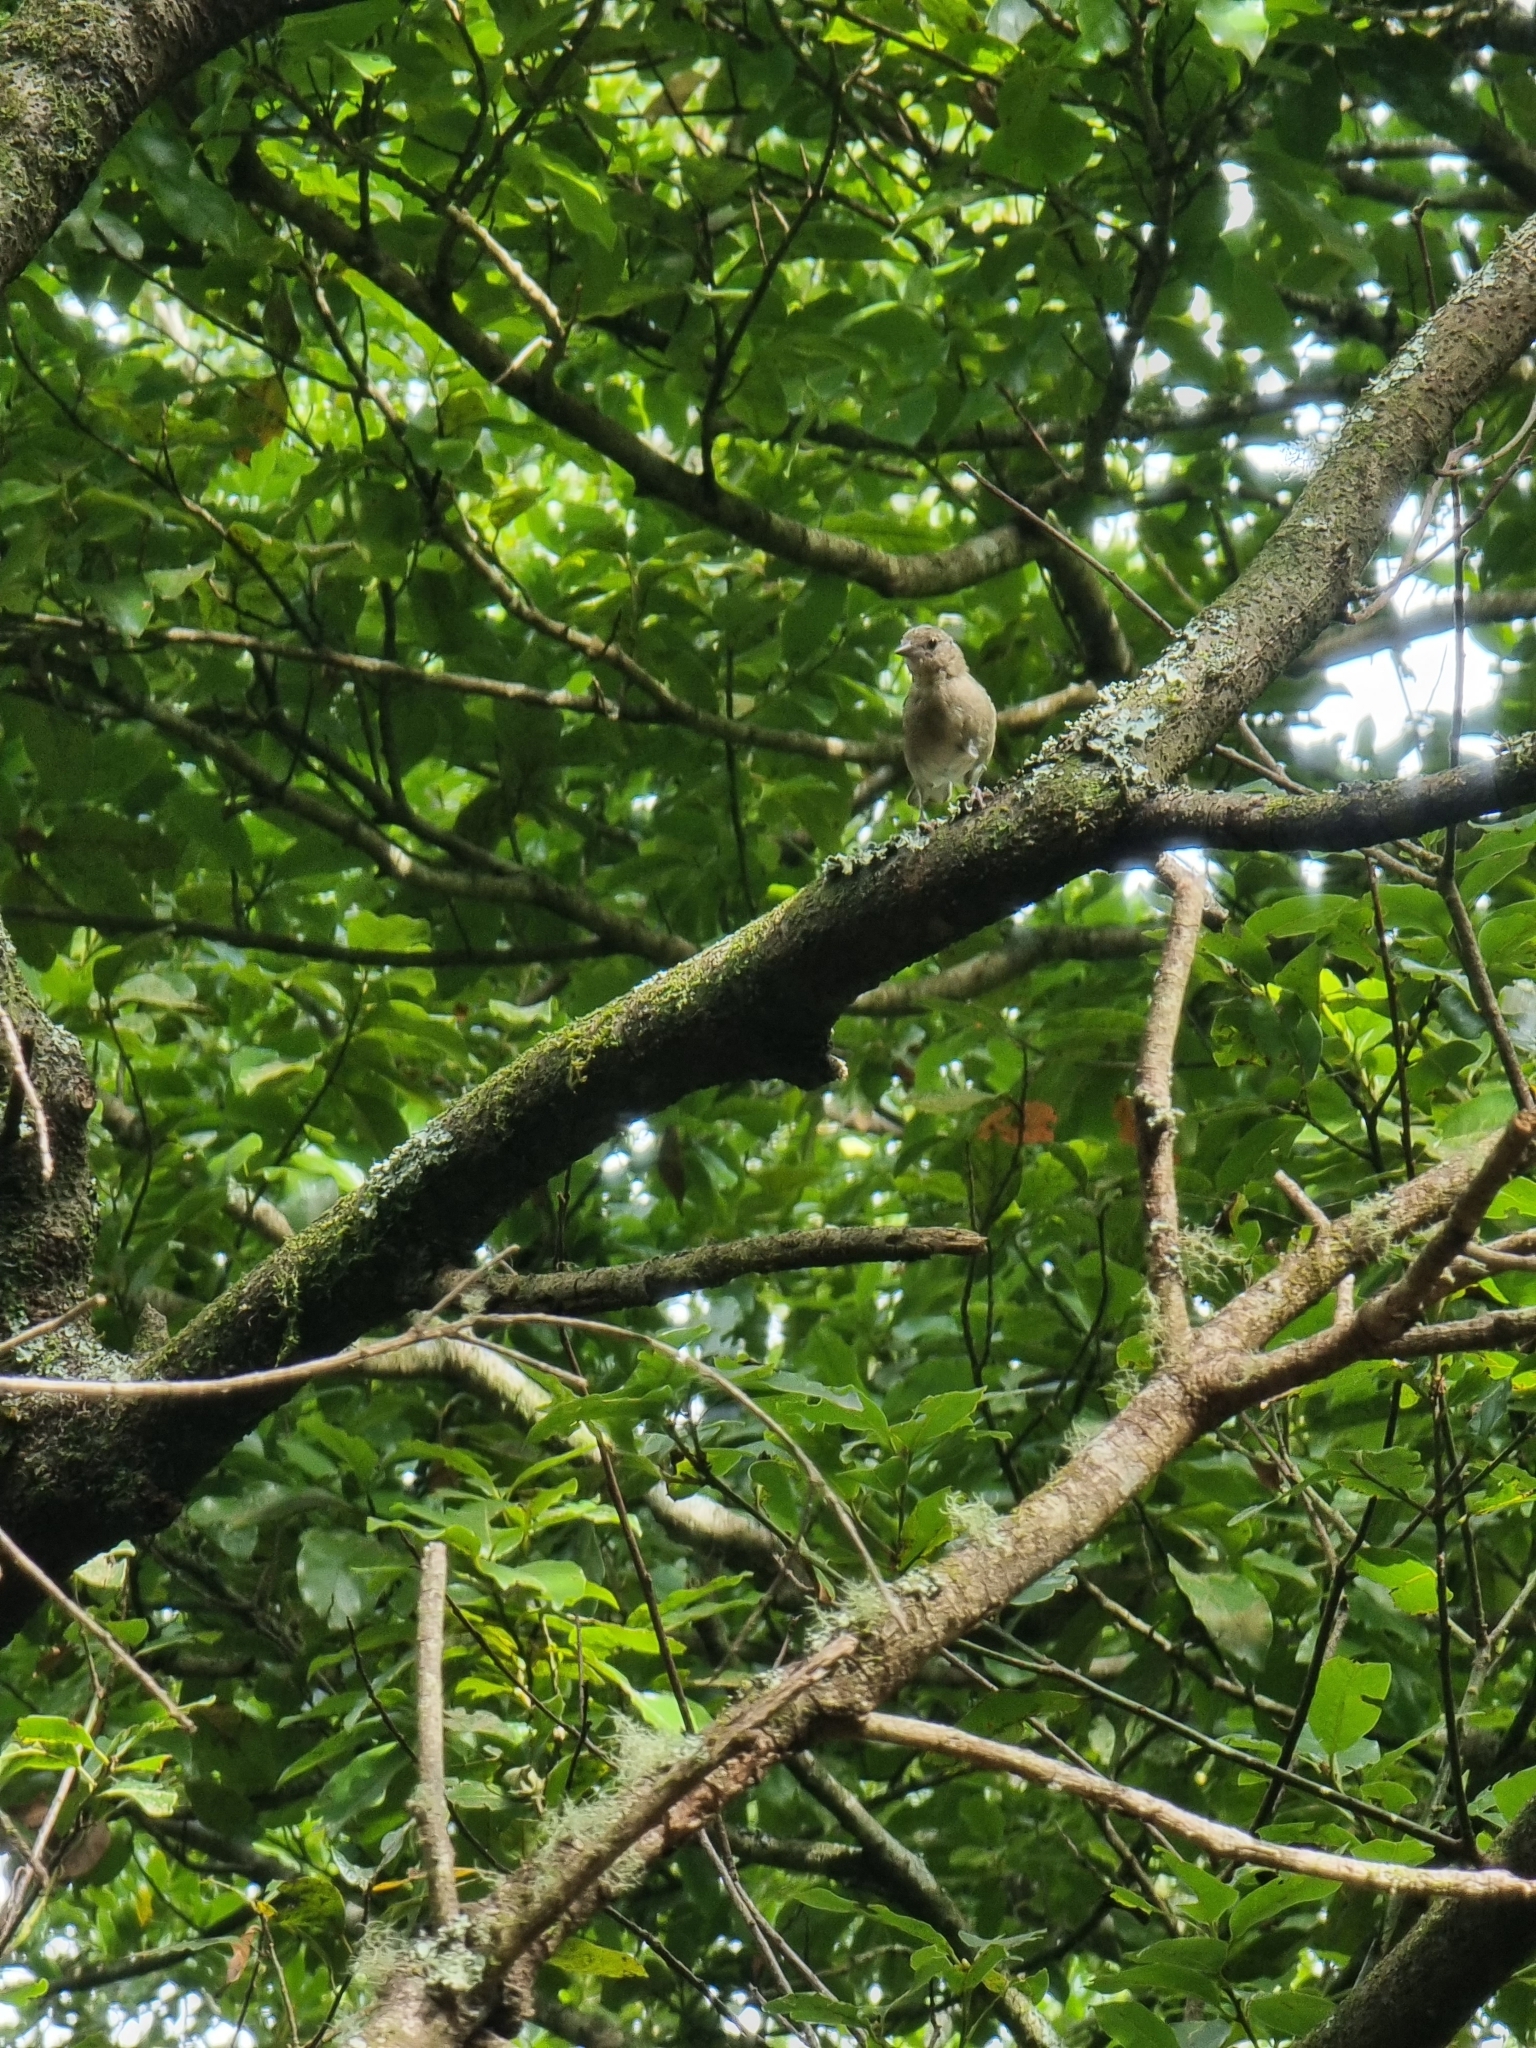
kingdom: Animalia
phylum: Chordata
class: Aves
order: Passeriformes
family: Fringillidae
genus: Fringilla
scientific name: Fringilla maderensis
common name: Madeira chaffinch
